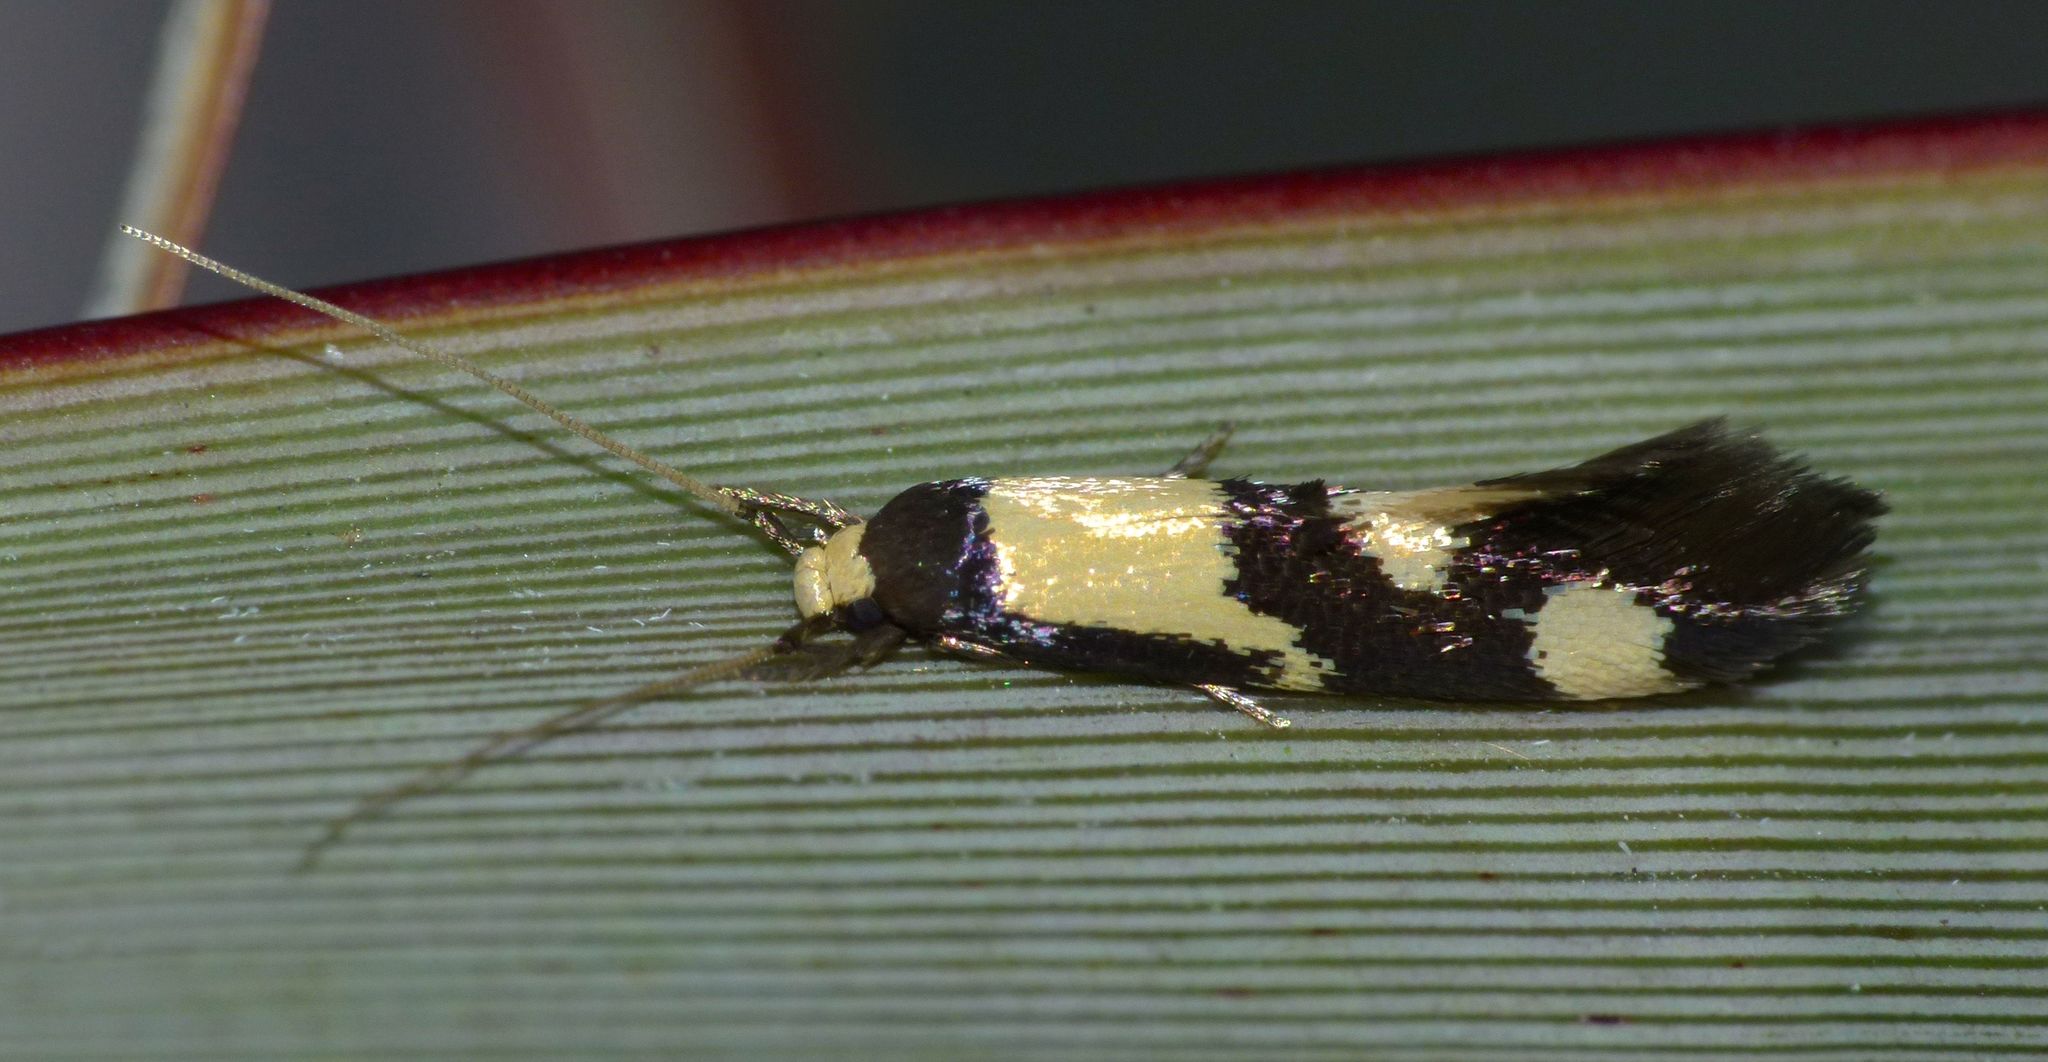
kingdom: Animalia
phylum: Arthropoda
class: Insecta
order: Lepidoptera
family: Tineidae
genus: Opogona
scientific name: Opogona comptella
